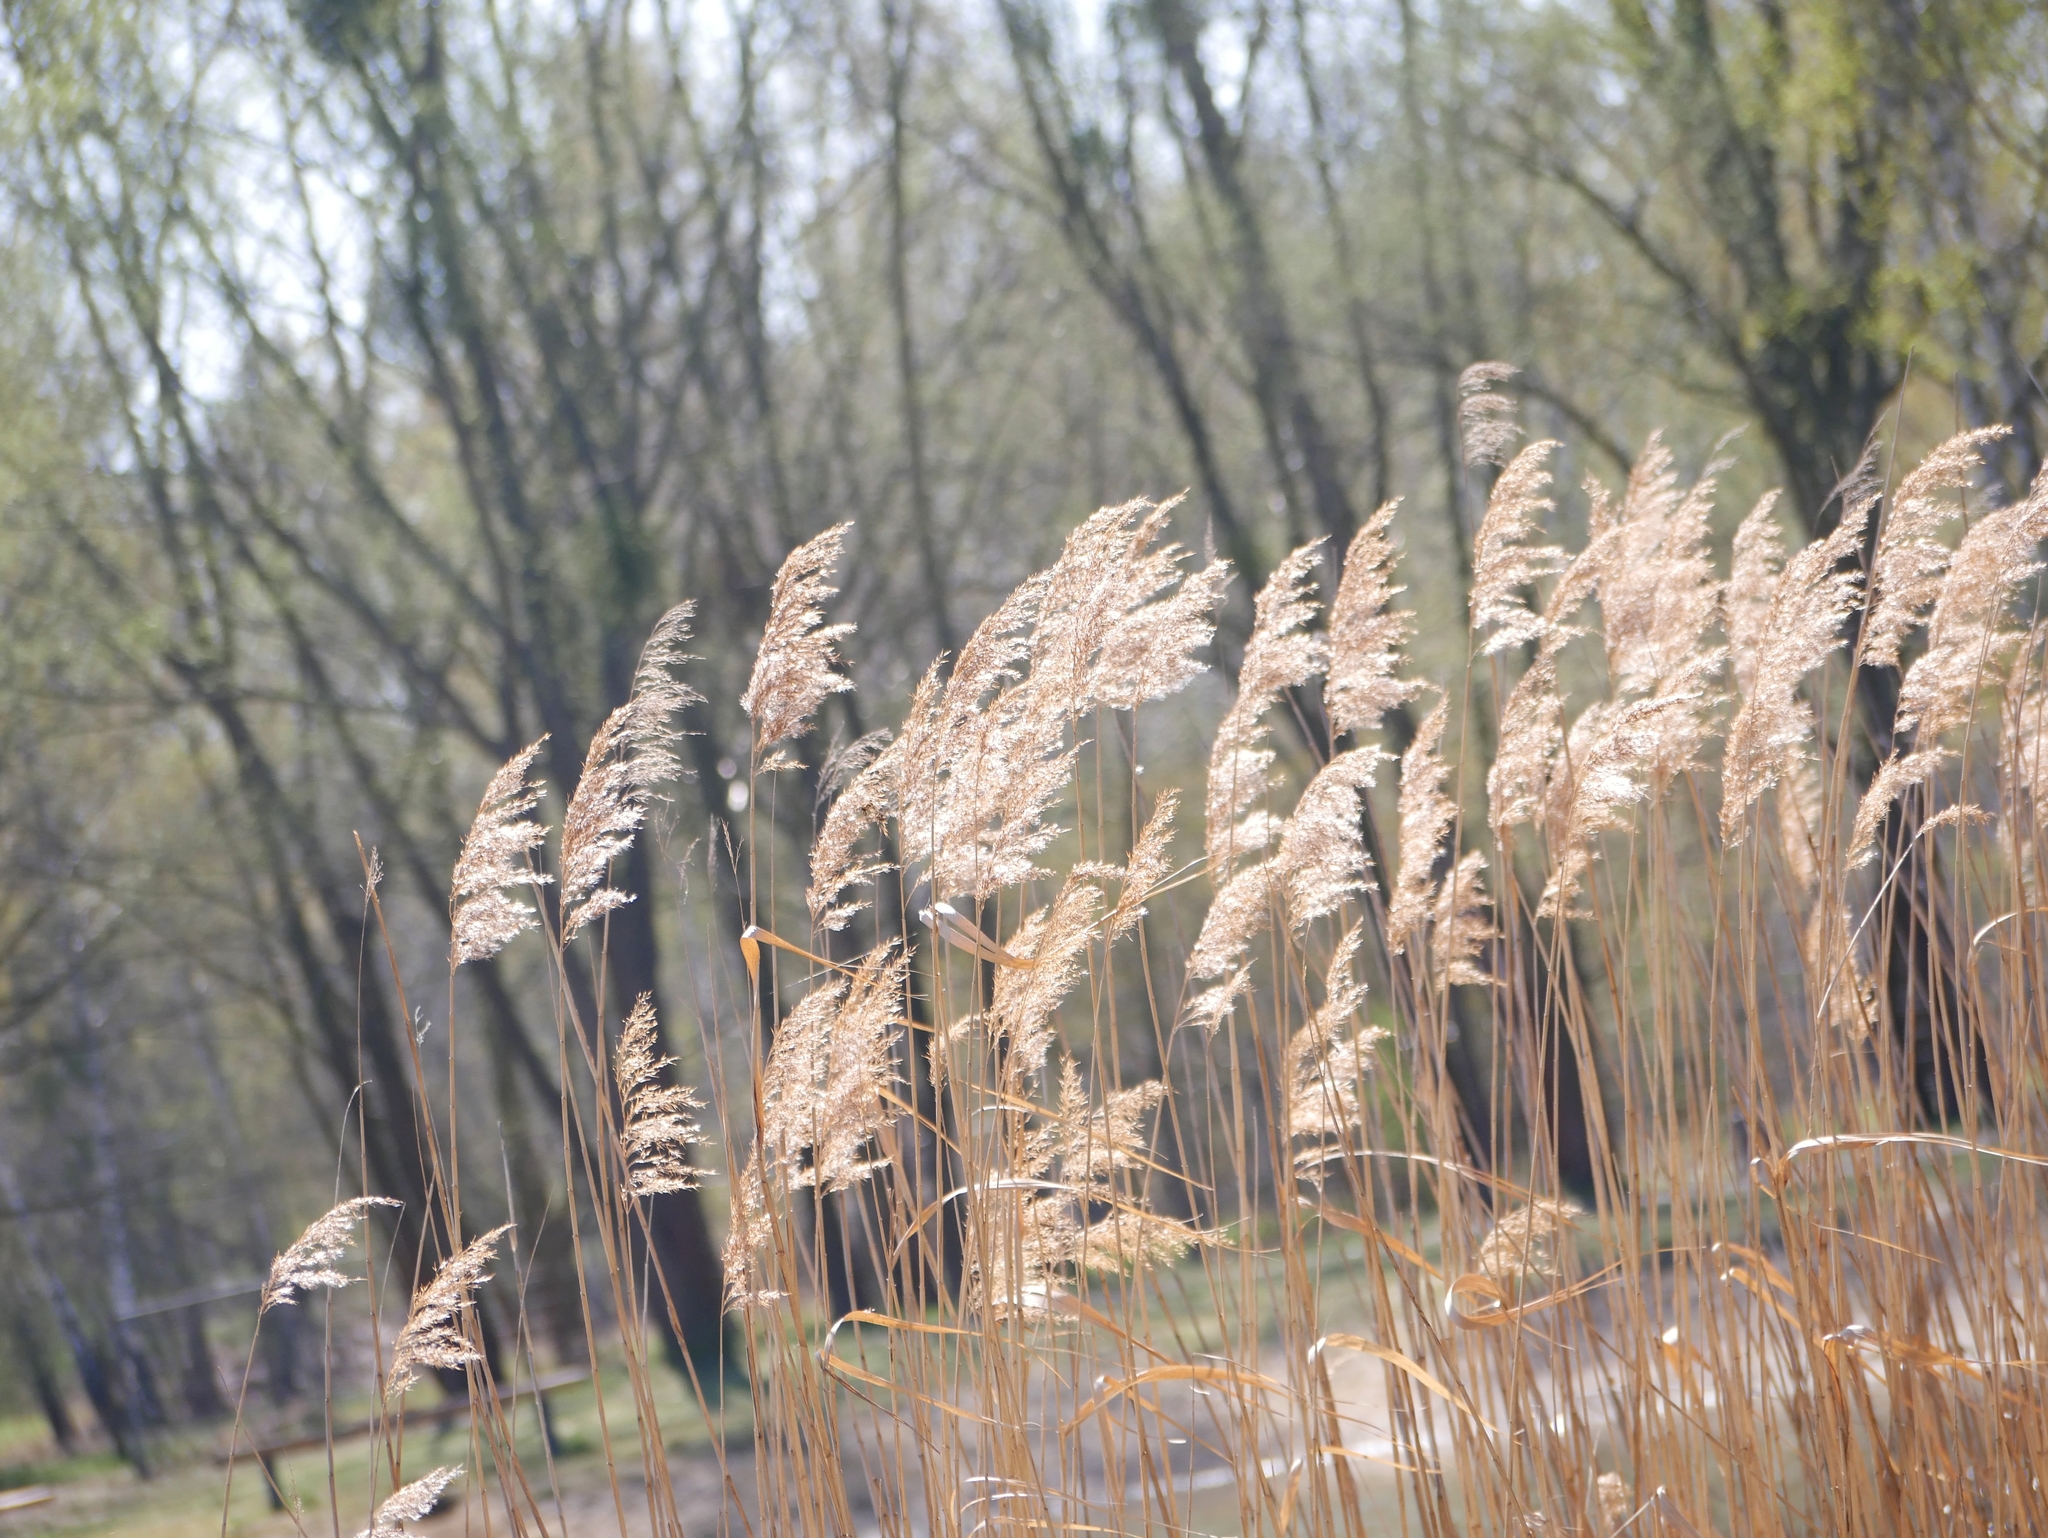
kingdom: Plantae
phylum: Tracheophyta
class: Liliopsida
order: Poales
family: Poaceae
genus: Phragmites
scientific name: Phragmites australis
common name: Common reed
